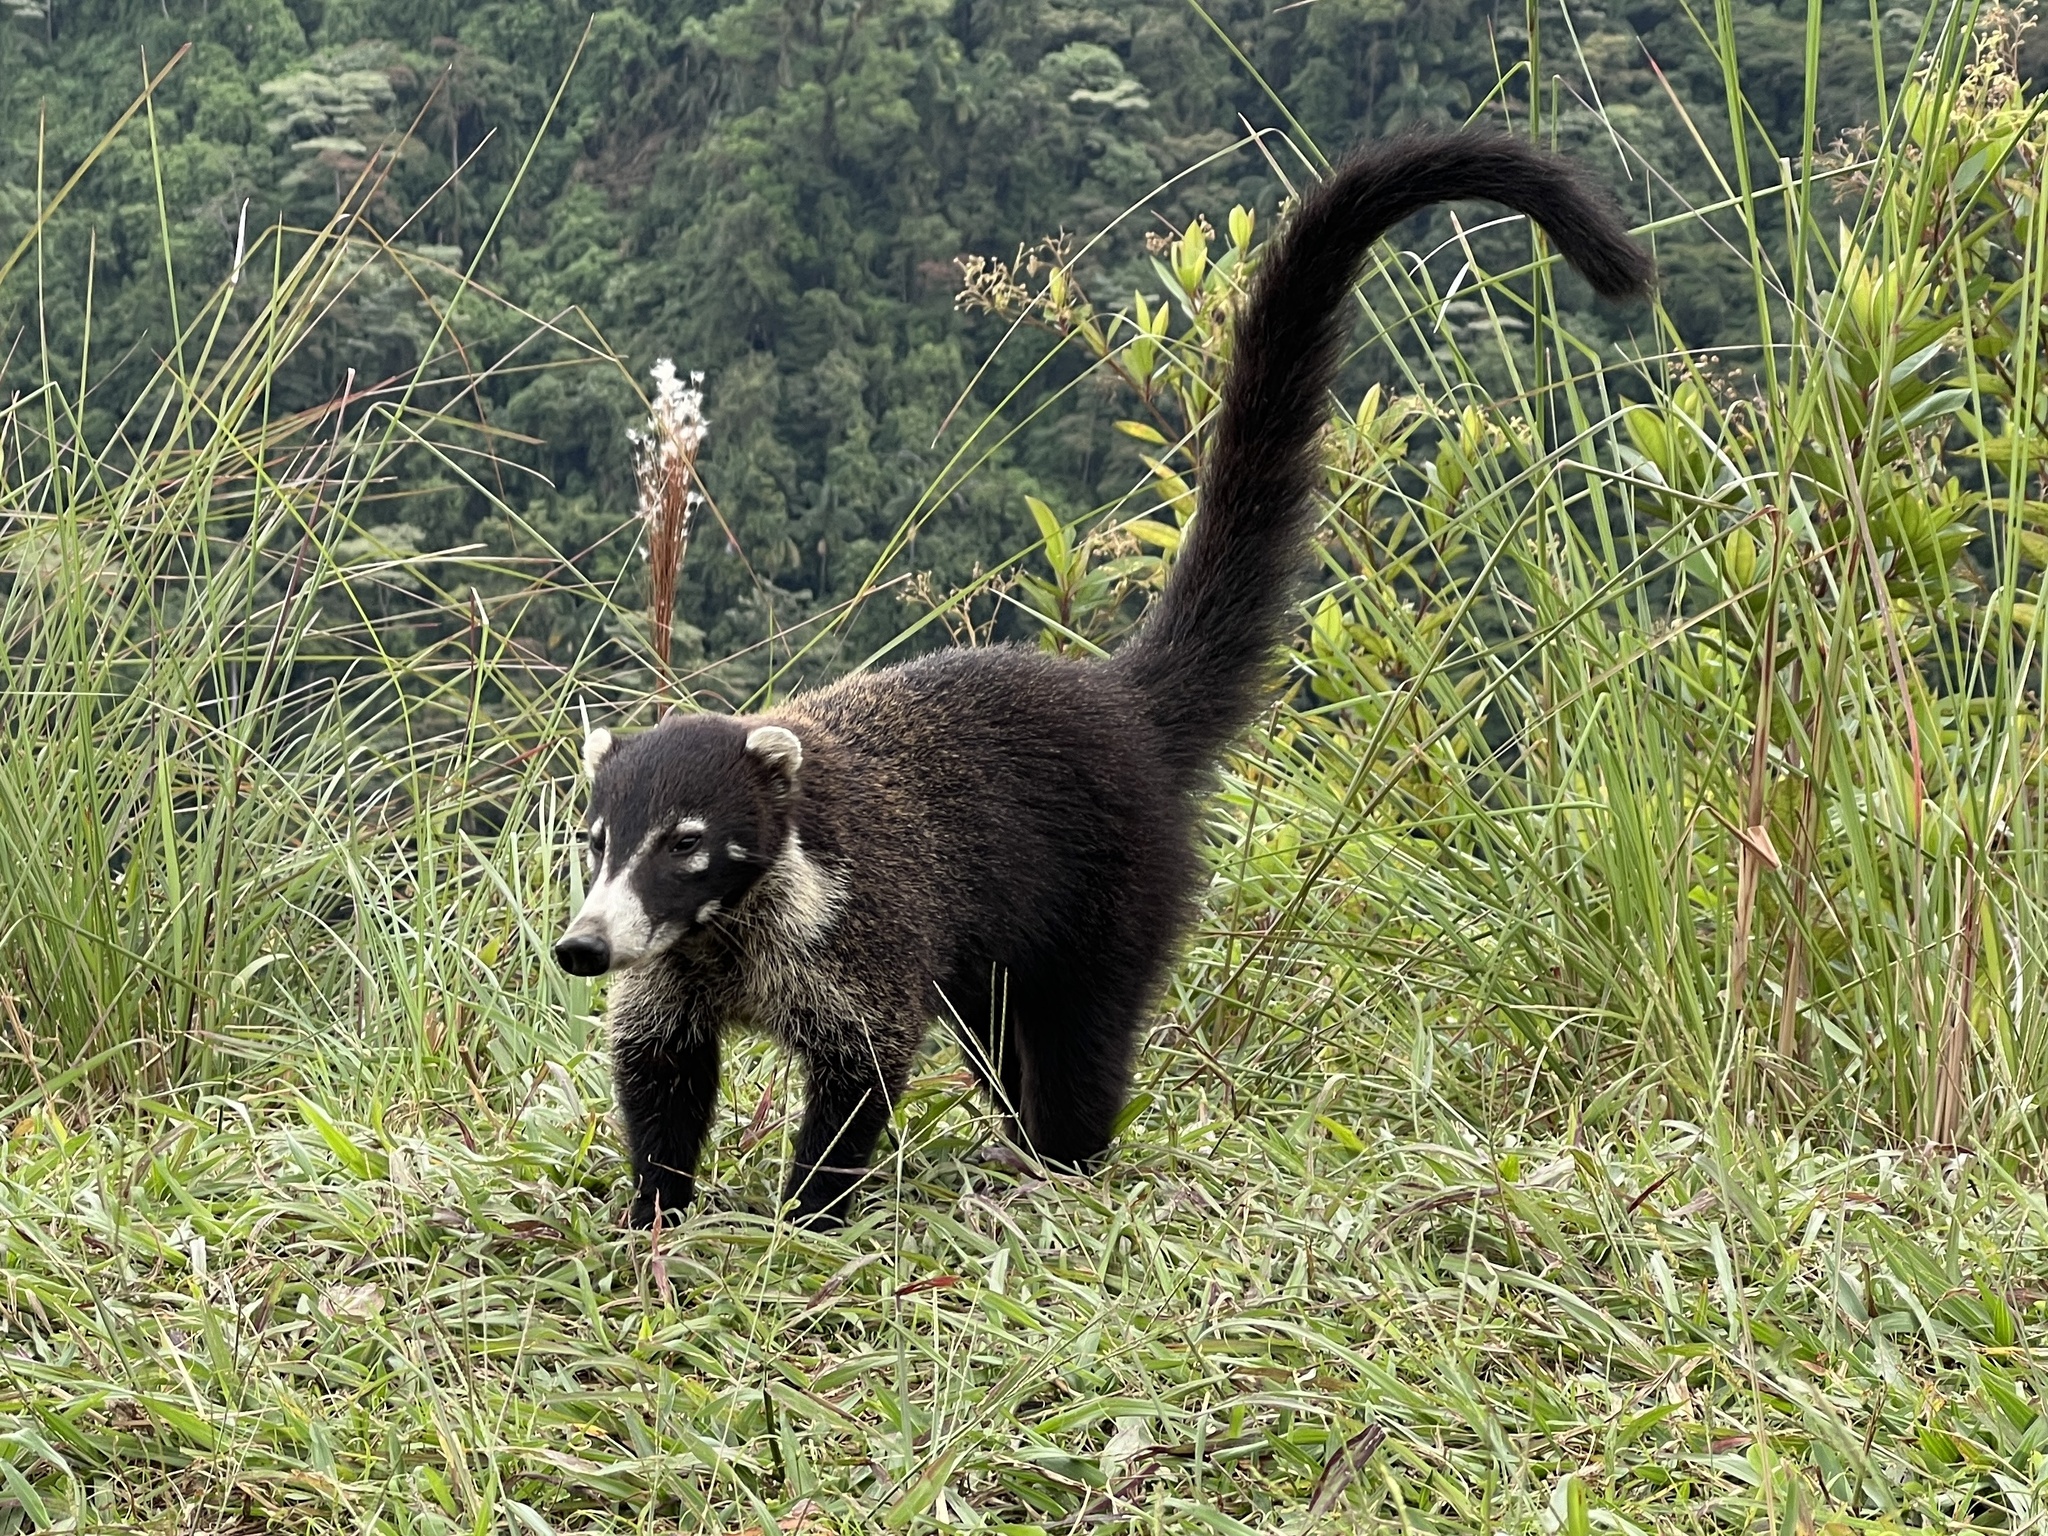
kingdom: Animalia
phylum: Chordata
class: Mammalia
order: Carnivora
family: Procyonidae
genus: Nasua
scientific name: Nasua narica
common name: White-nosed coati
